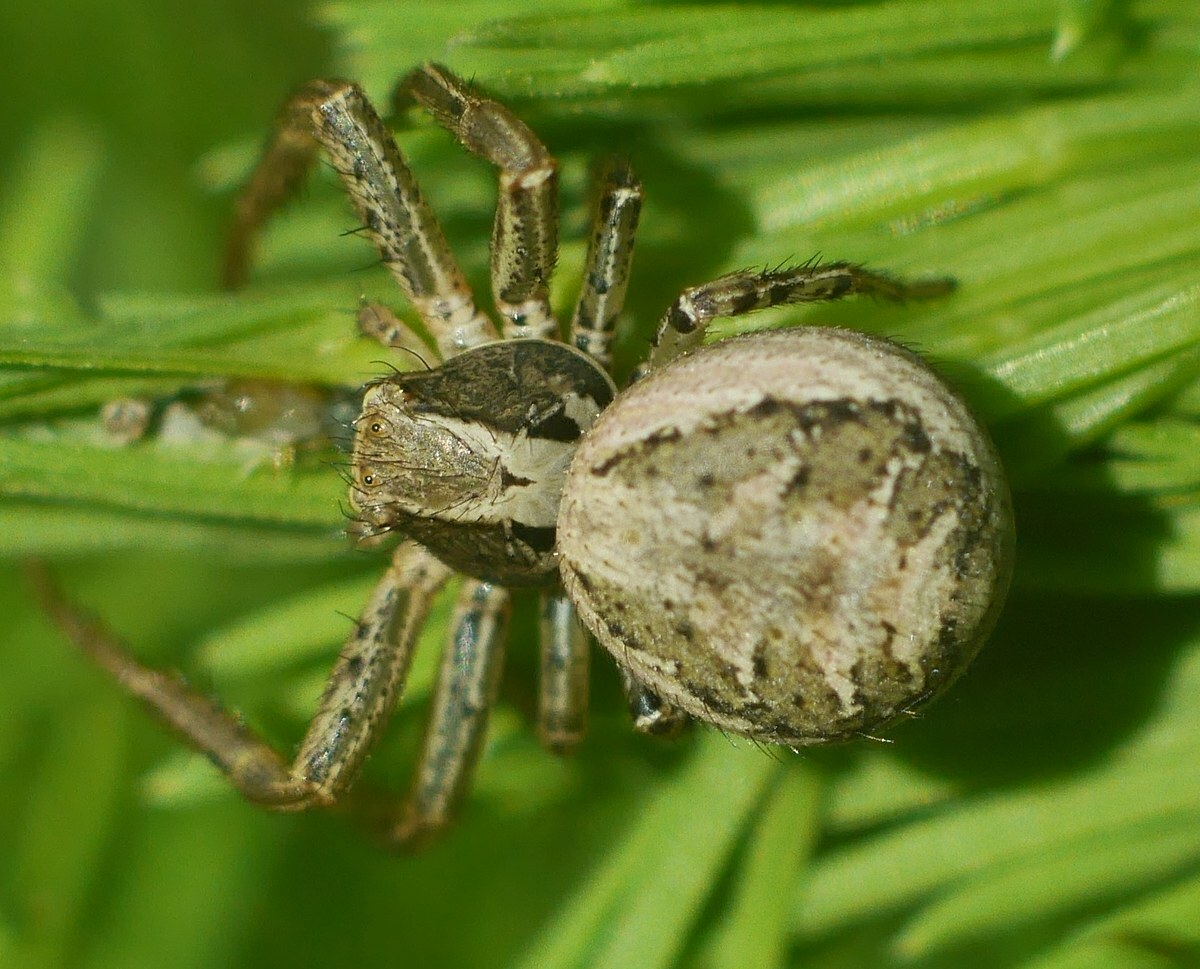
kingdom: Animalia
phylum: Arthropoda
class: Arachnida
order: Araneae
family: Thomisidae
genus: Xysticus
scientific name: Xysticus
